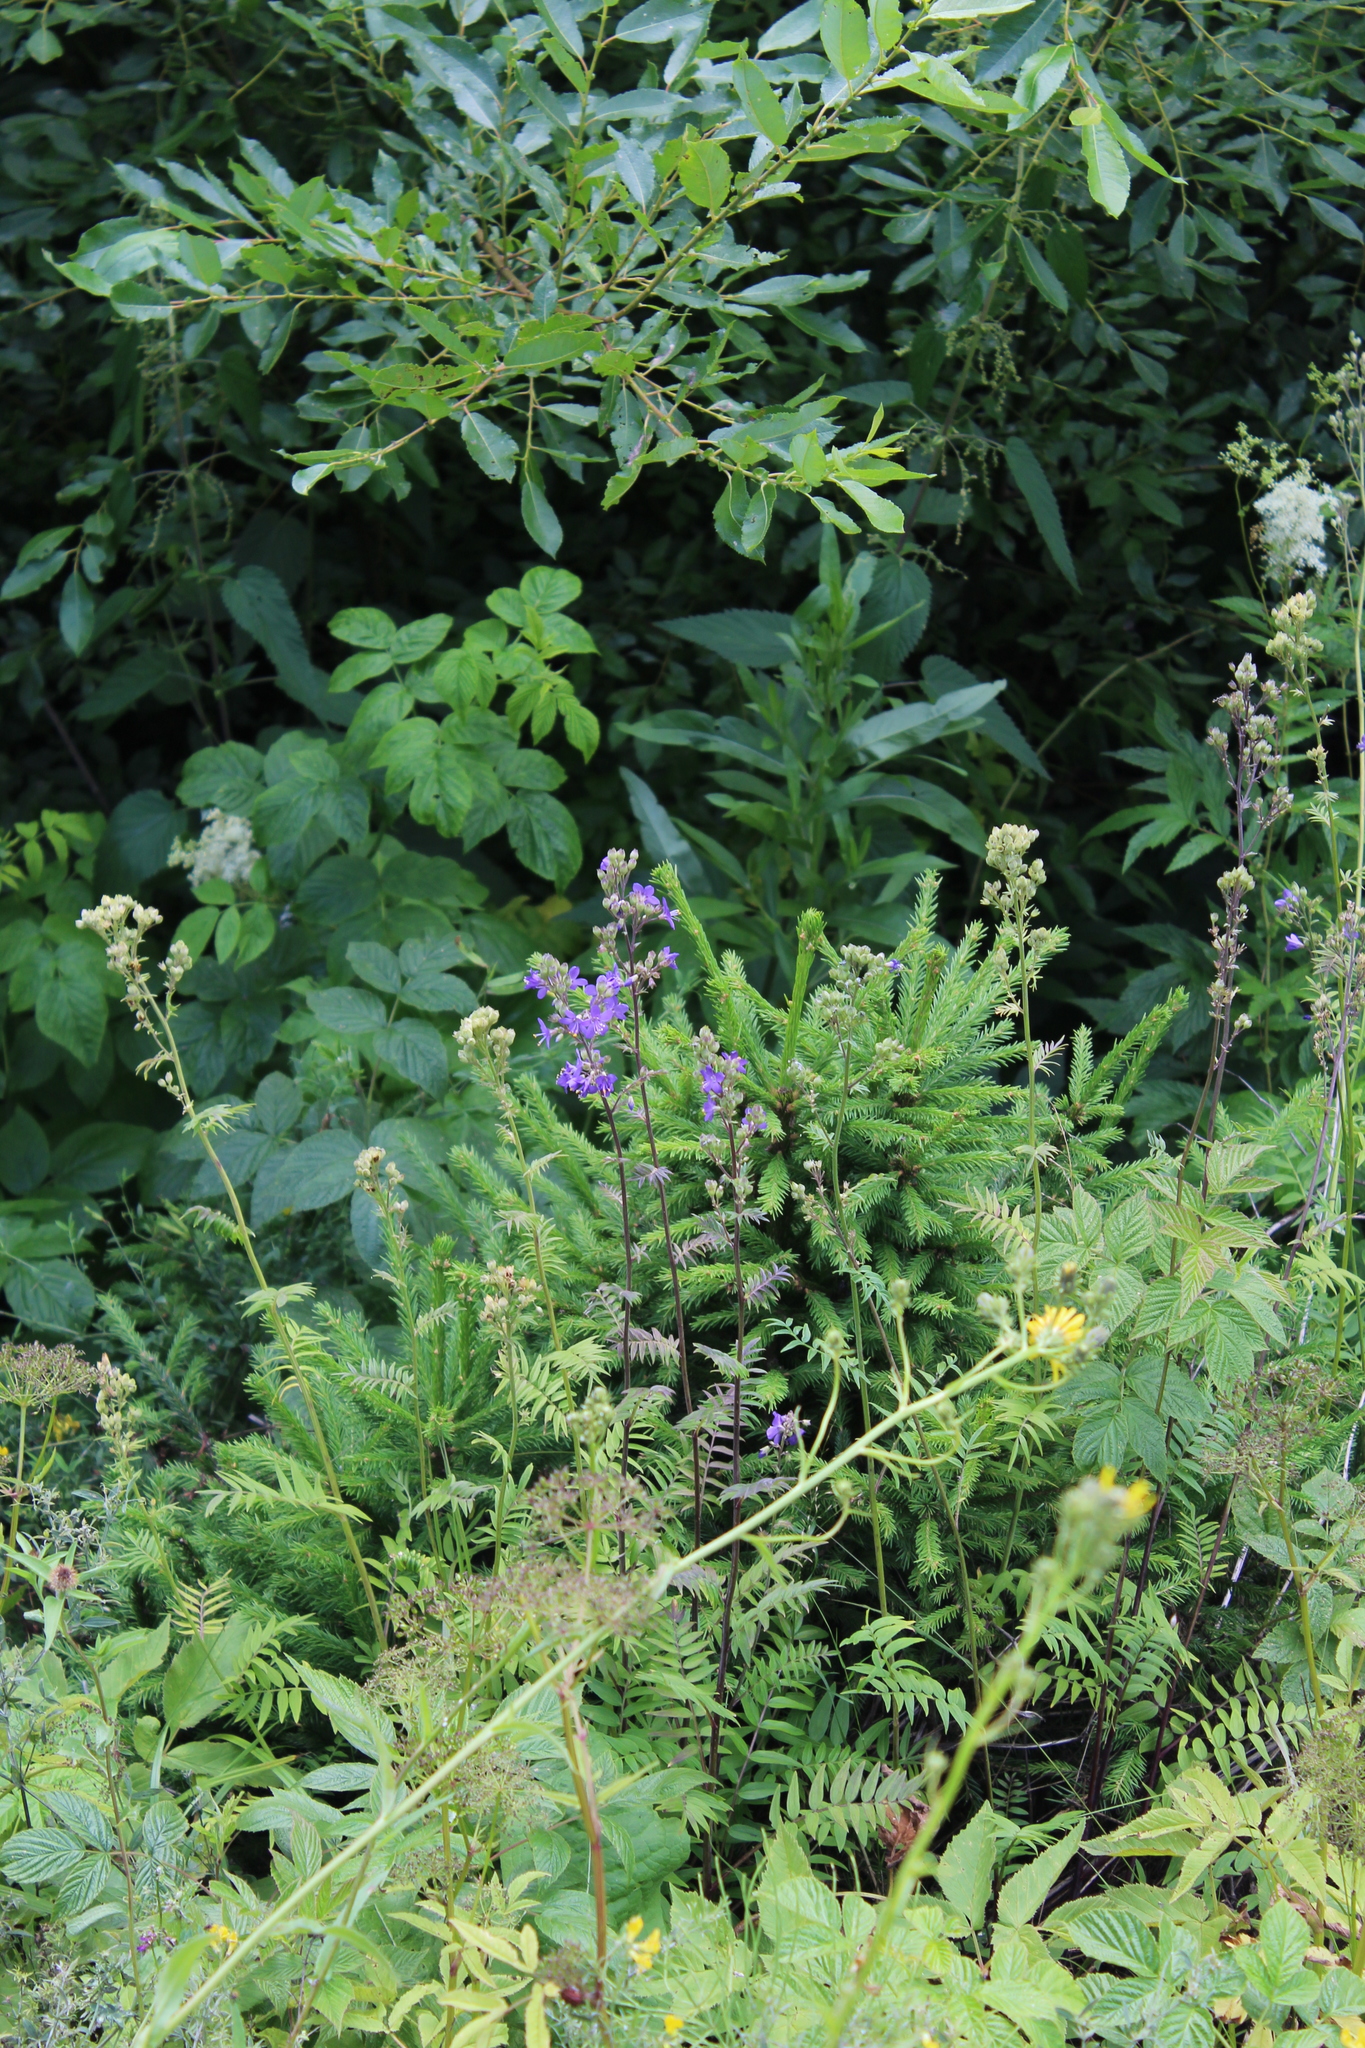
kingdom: Plantae
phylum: Tracheophyta
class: Magnoliopsida
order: Ericales
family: Polemoniaceae
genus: Polemonium
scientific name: Polemonium caeruleum
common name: Jacob's-ladder
